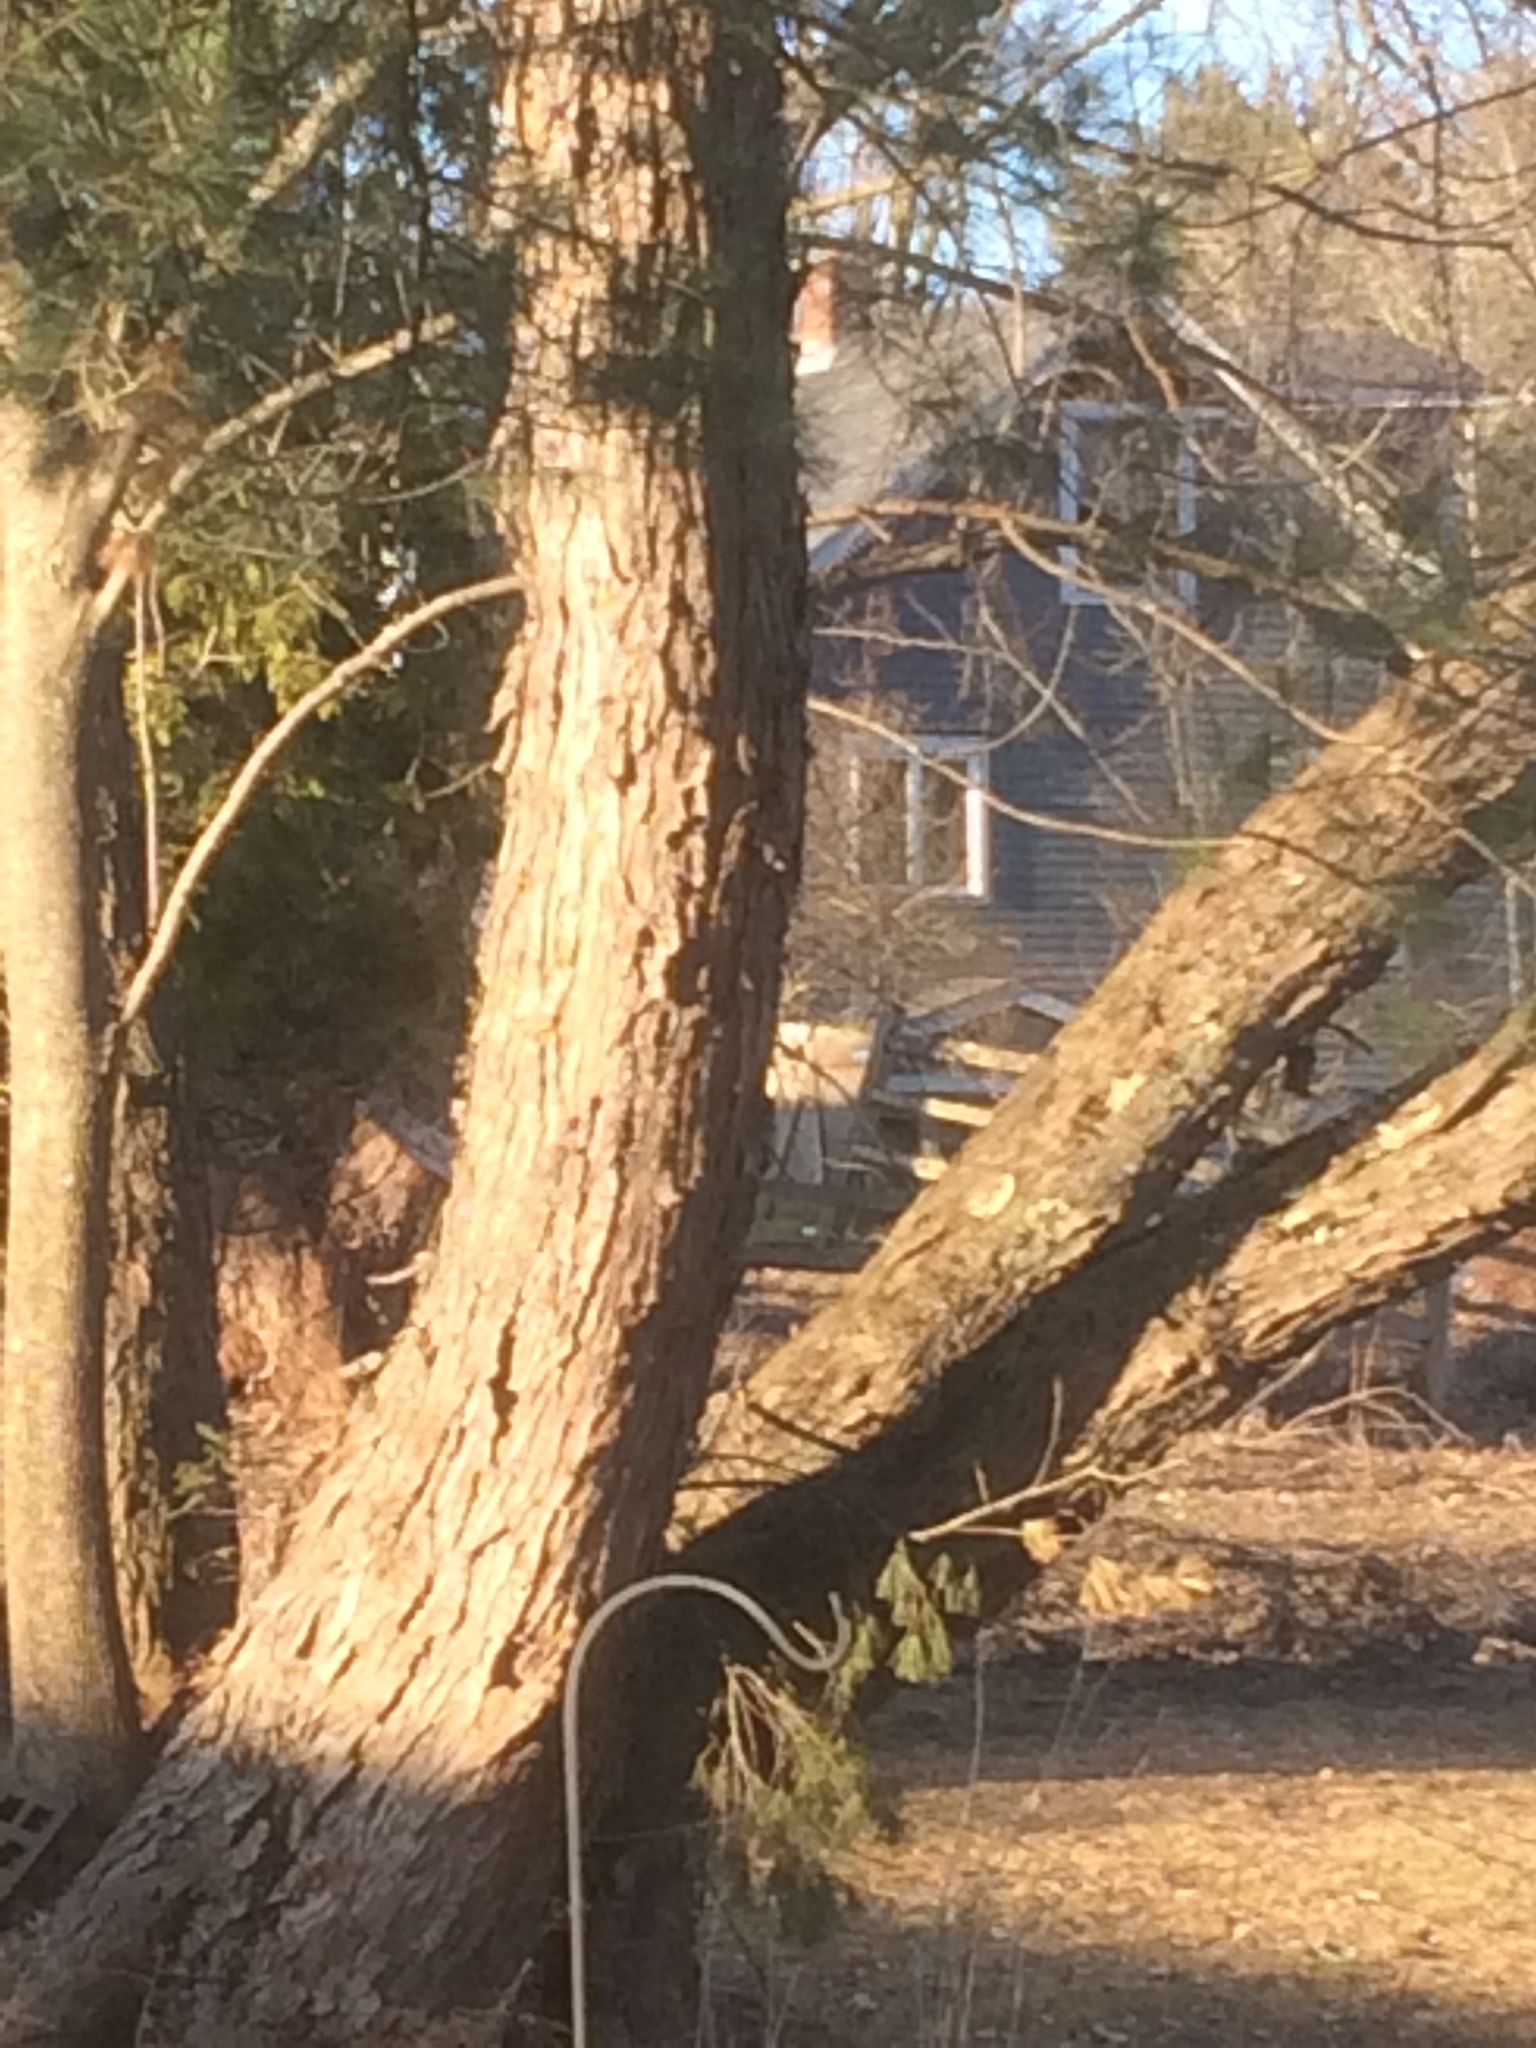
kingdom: Animalia
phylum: Chordata
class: Aves
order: Passeriformes
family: Sittidae
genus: Sitta
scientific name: Sitta carolinensis
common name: White-breasted nuthatch
